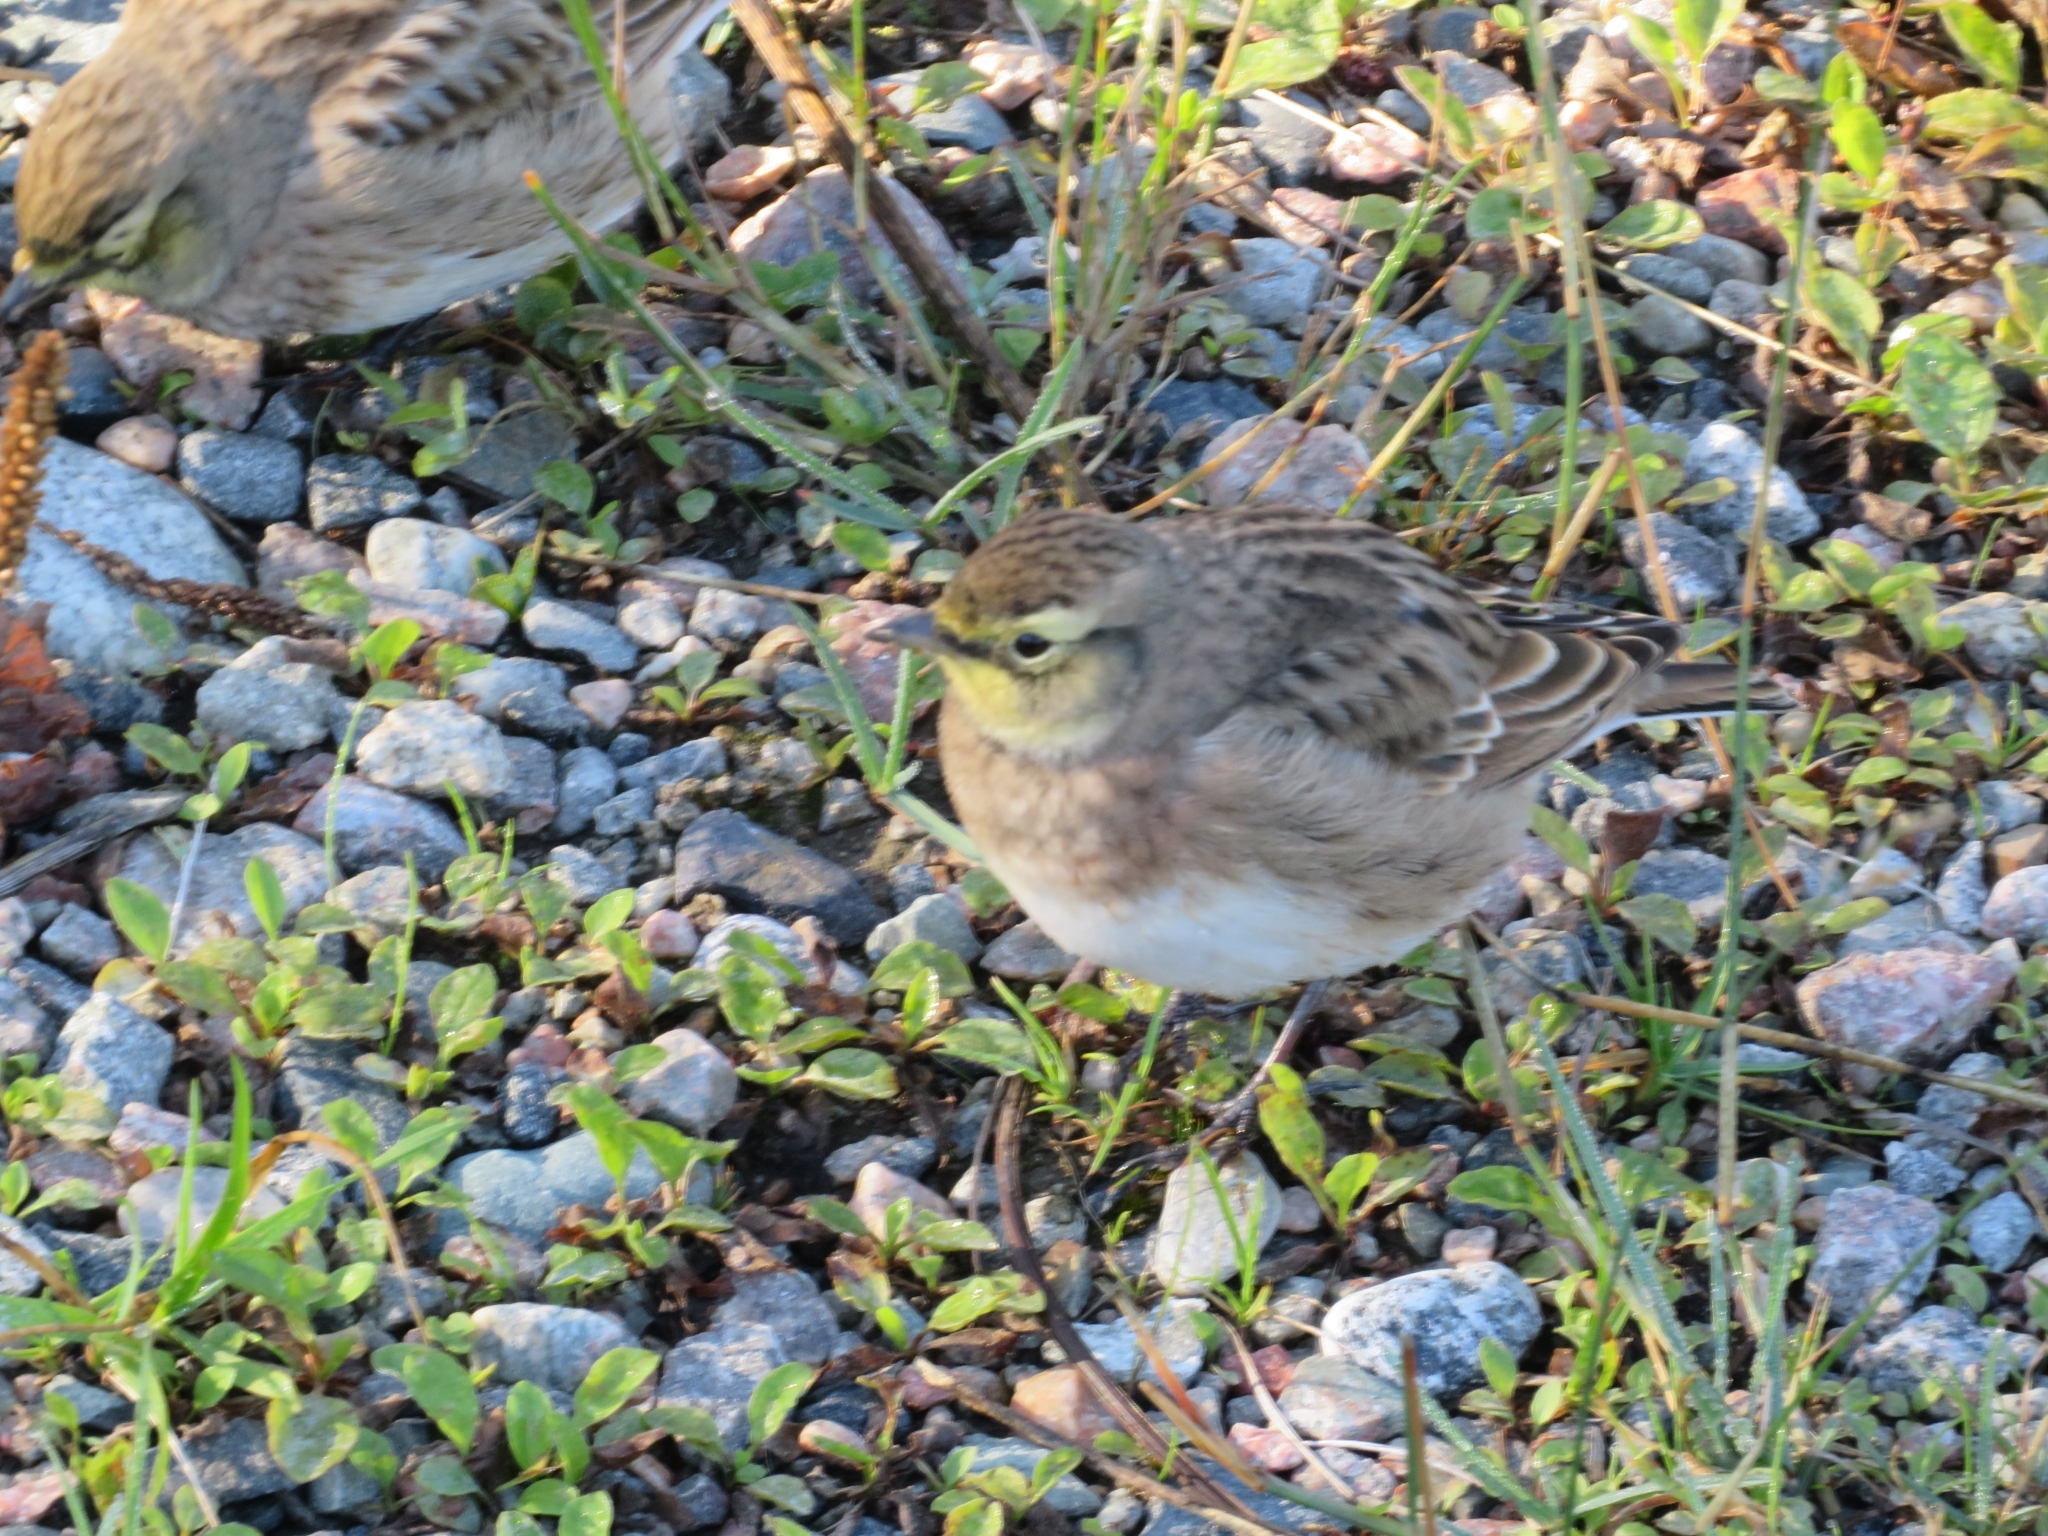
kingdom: Animalia
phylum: Chordata
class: Aves
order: Passeriformes
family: Alaudidae
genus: Eremophila
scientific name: Eremophila alpestris
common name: Horned lark
